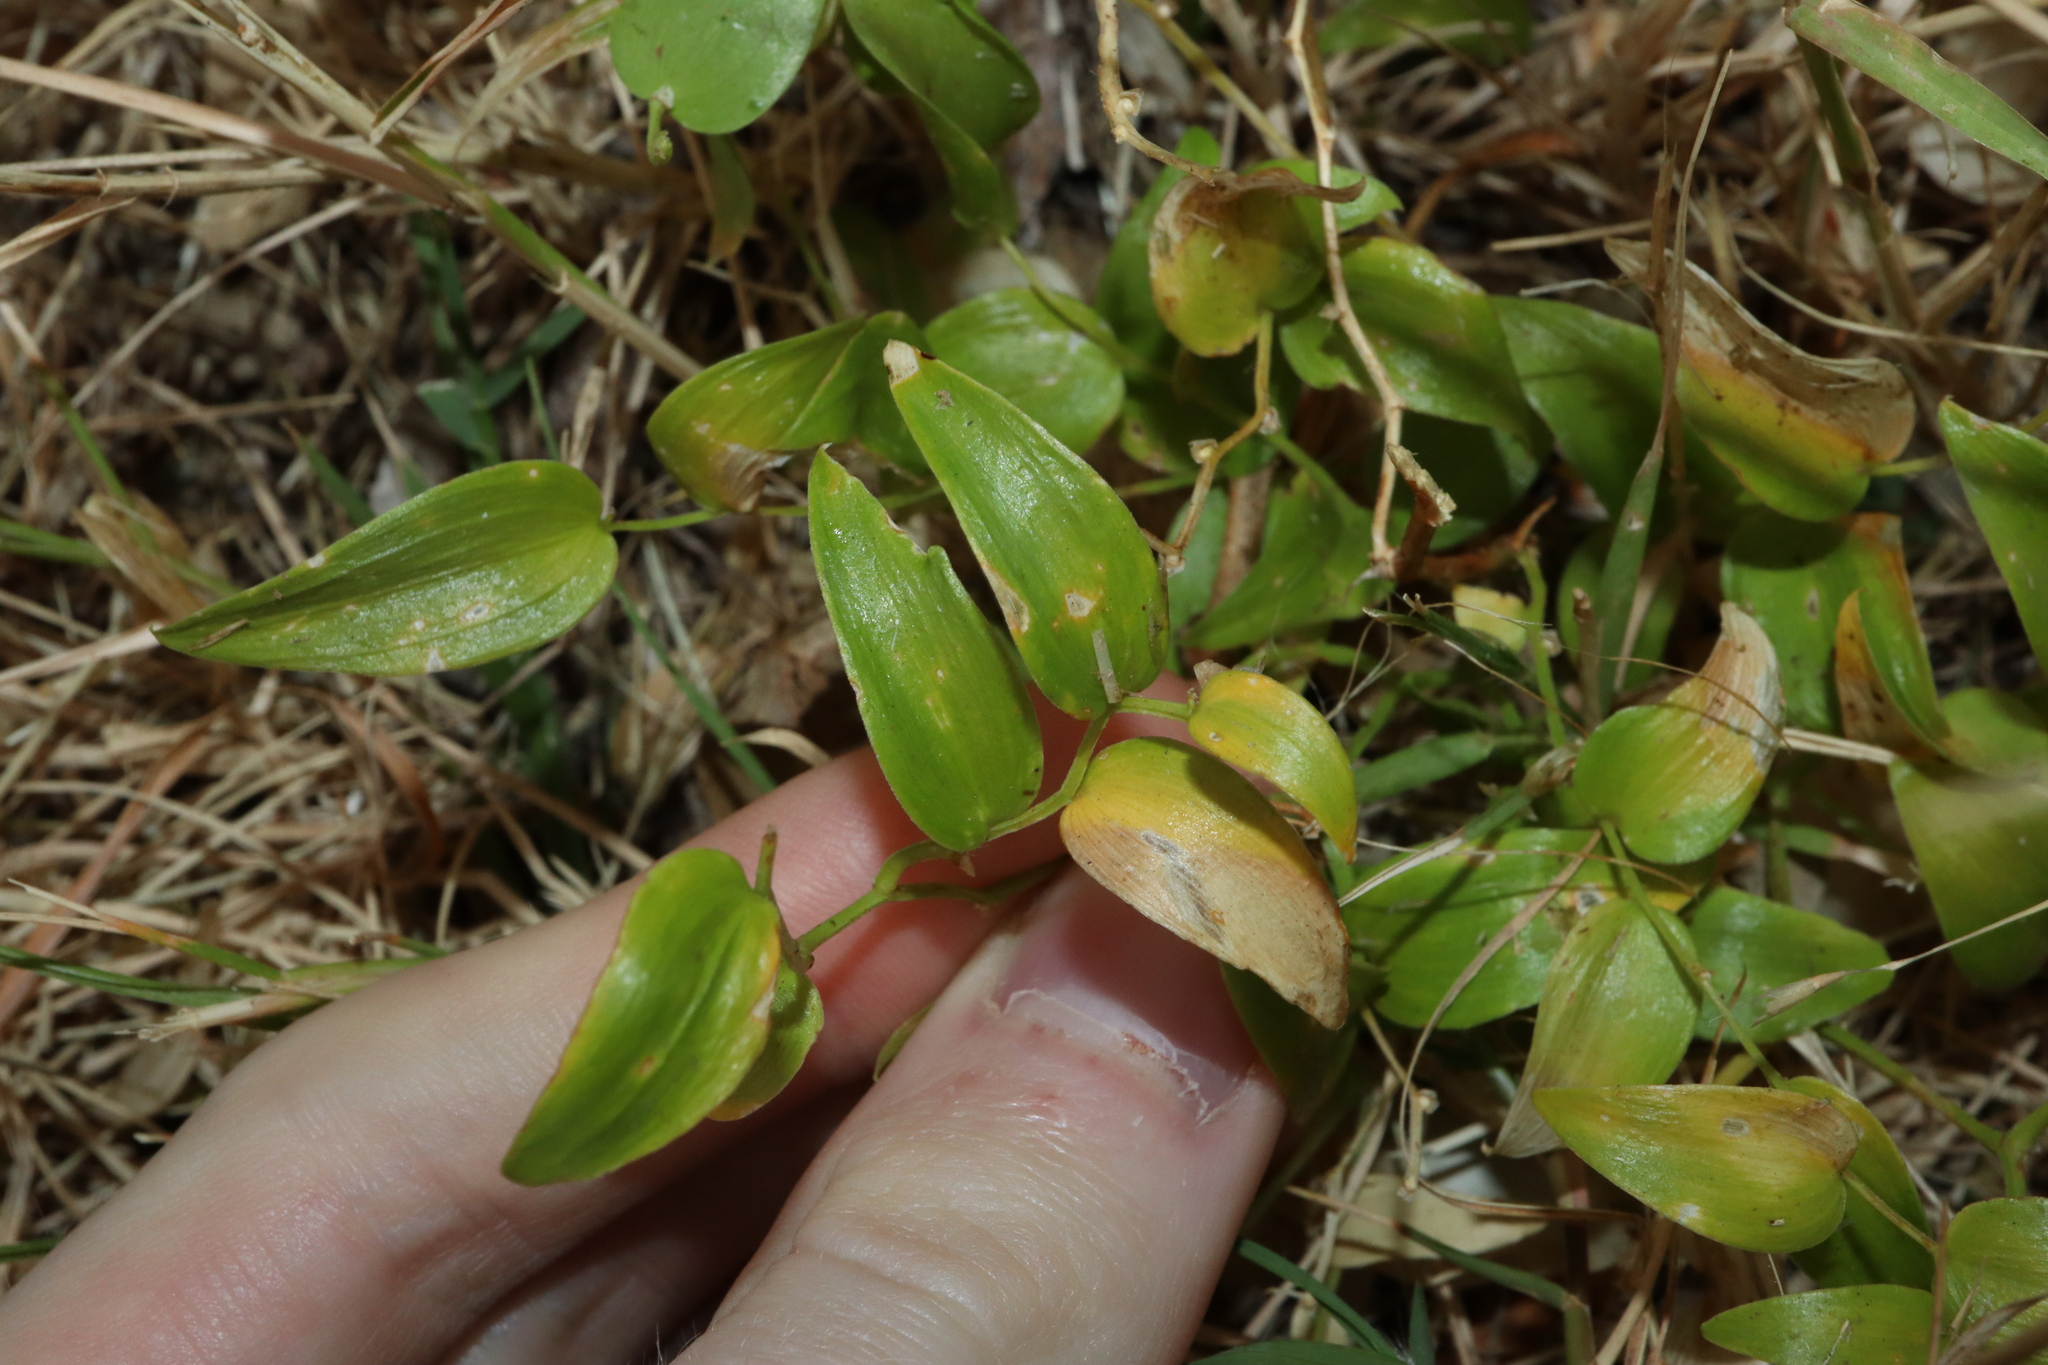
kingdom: Plantae
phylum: Tracheophyta
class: Liliopsida
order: Asparagales
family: Asparagaceae
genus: Asparagus
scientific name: Asparagus asparagoides
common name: African asparagus fern
